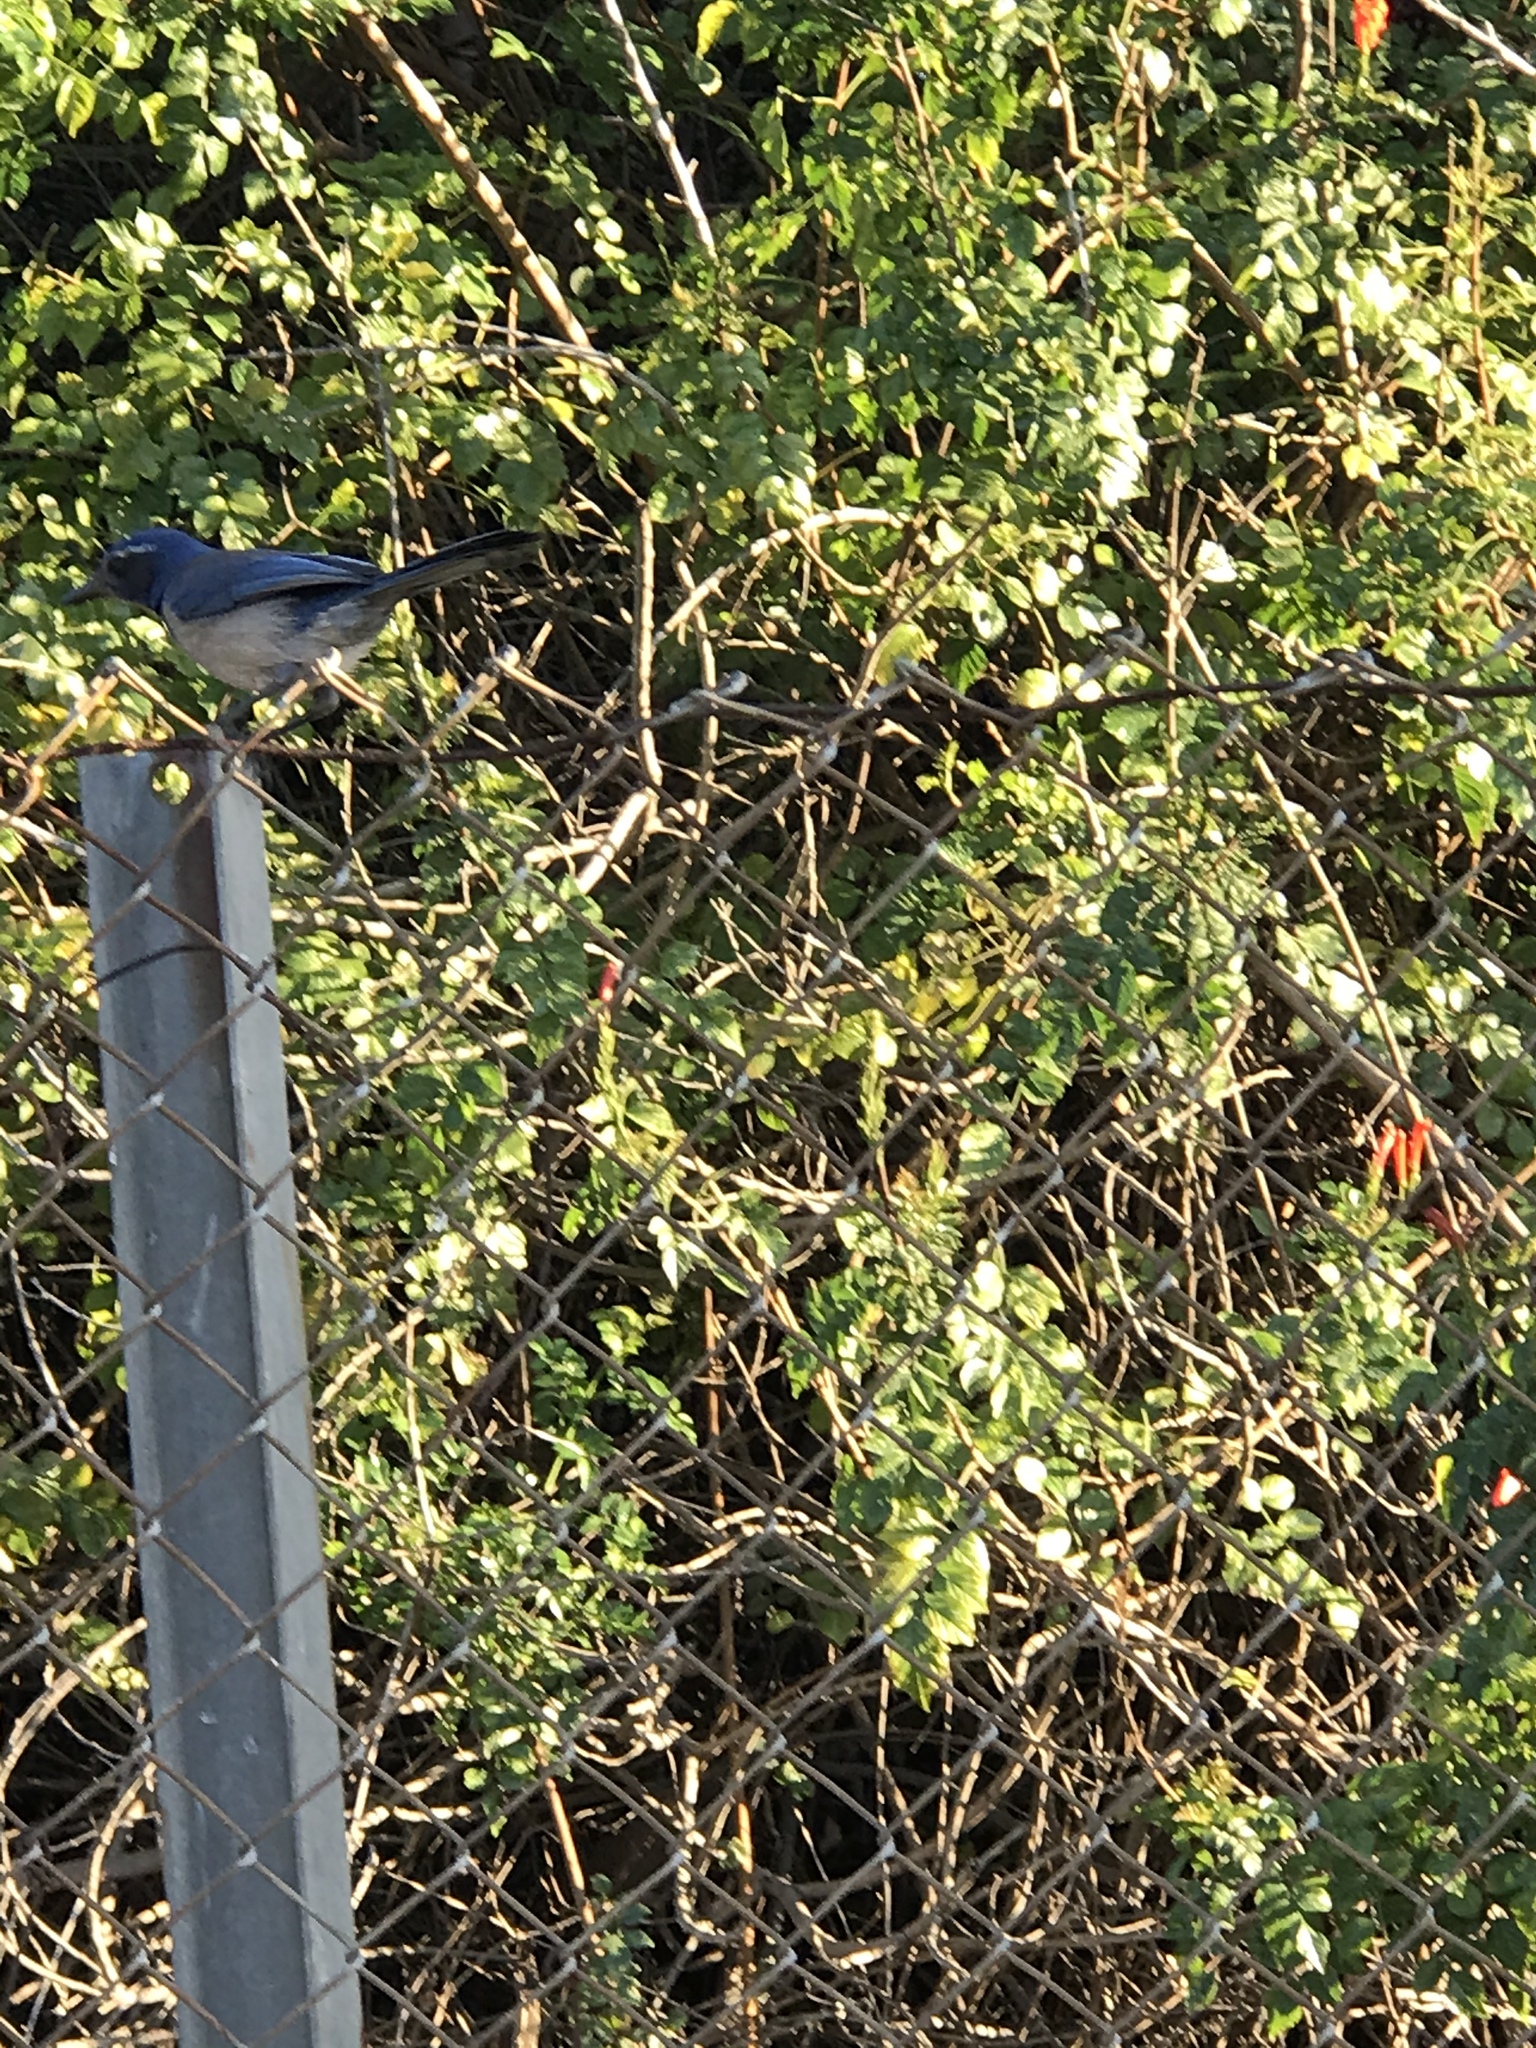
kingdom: Animalia
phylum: Chordata
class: Aves
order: Passeriformes
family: Corvidae
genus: Aphelocoma
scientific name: Aphelocoma californica
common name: California scrub-jay
